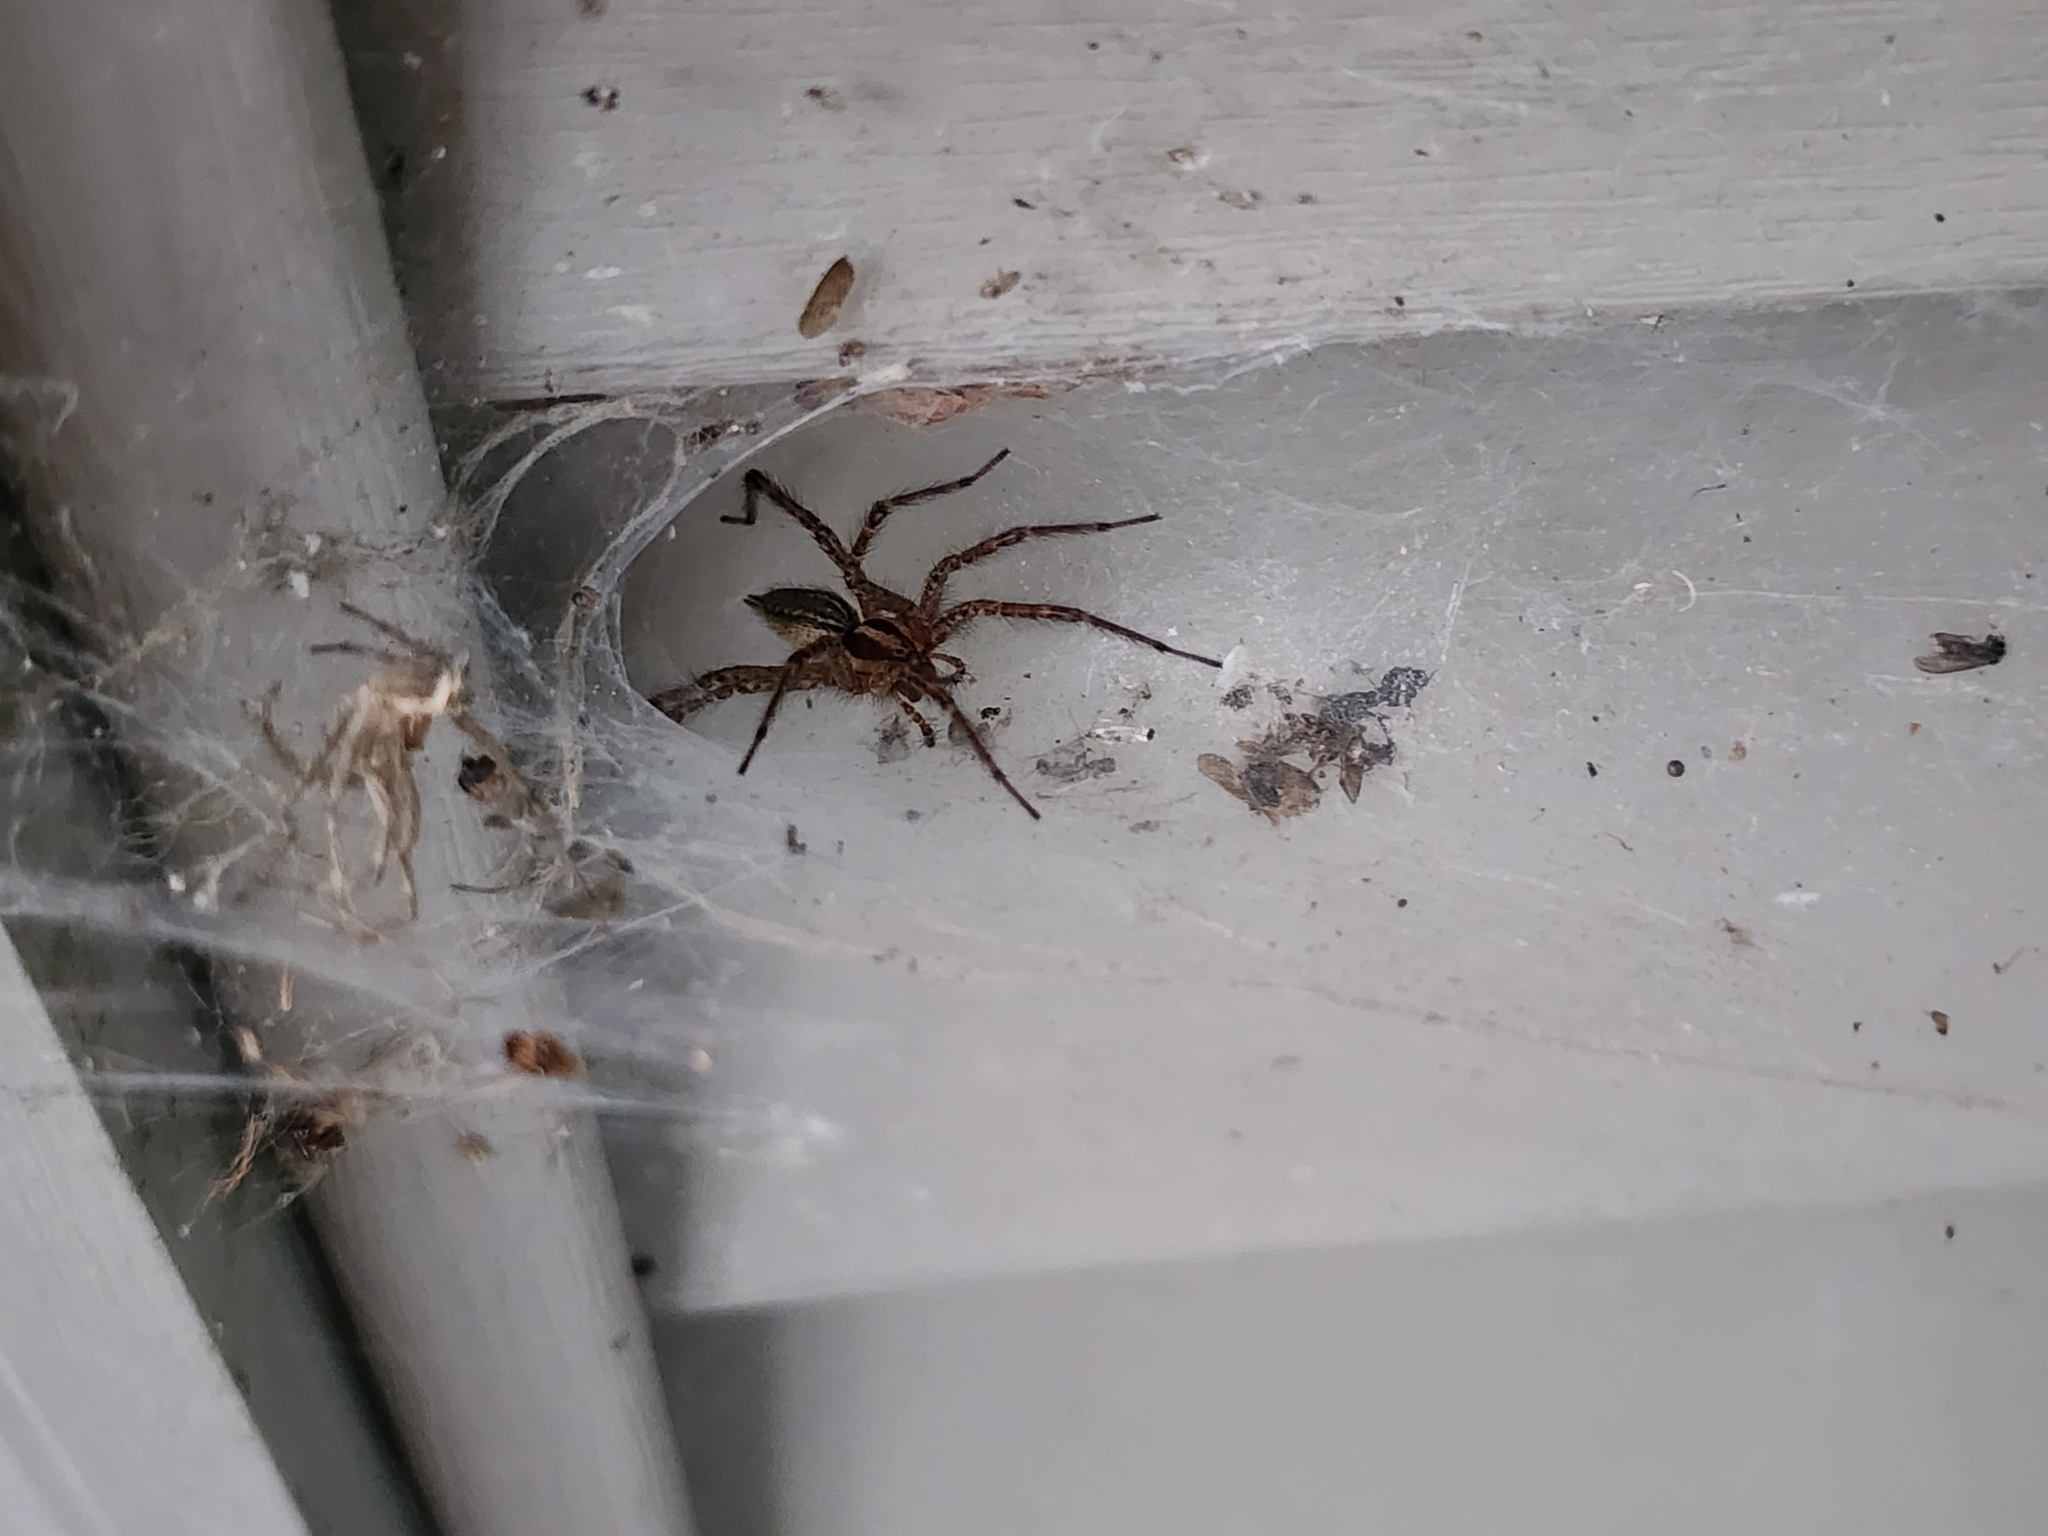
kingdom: Animalia
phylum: Arthropoda
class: Arachnida
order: Araneae
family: Agelenidae
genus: Agelenopsis
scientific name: Agelenopsis
